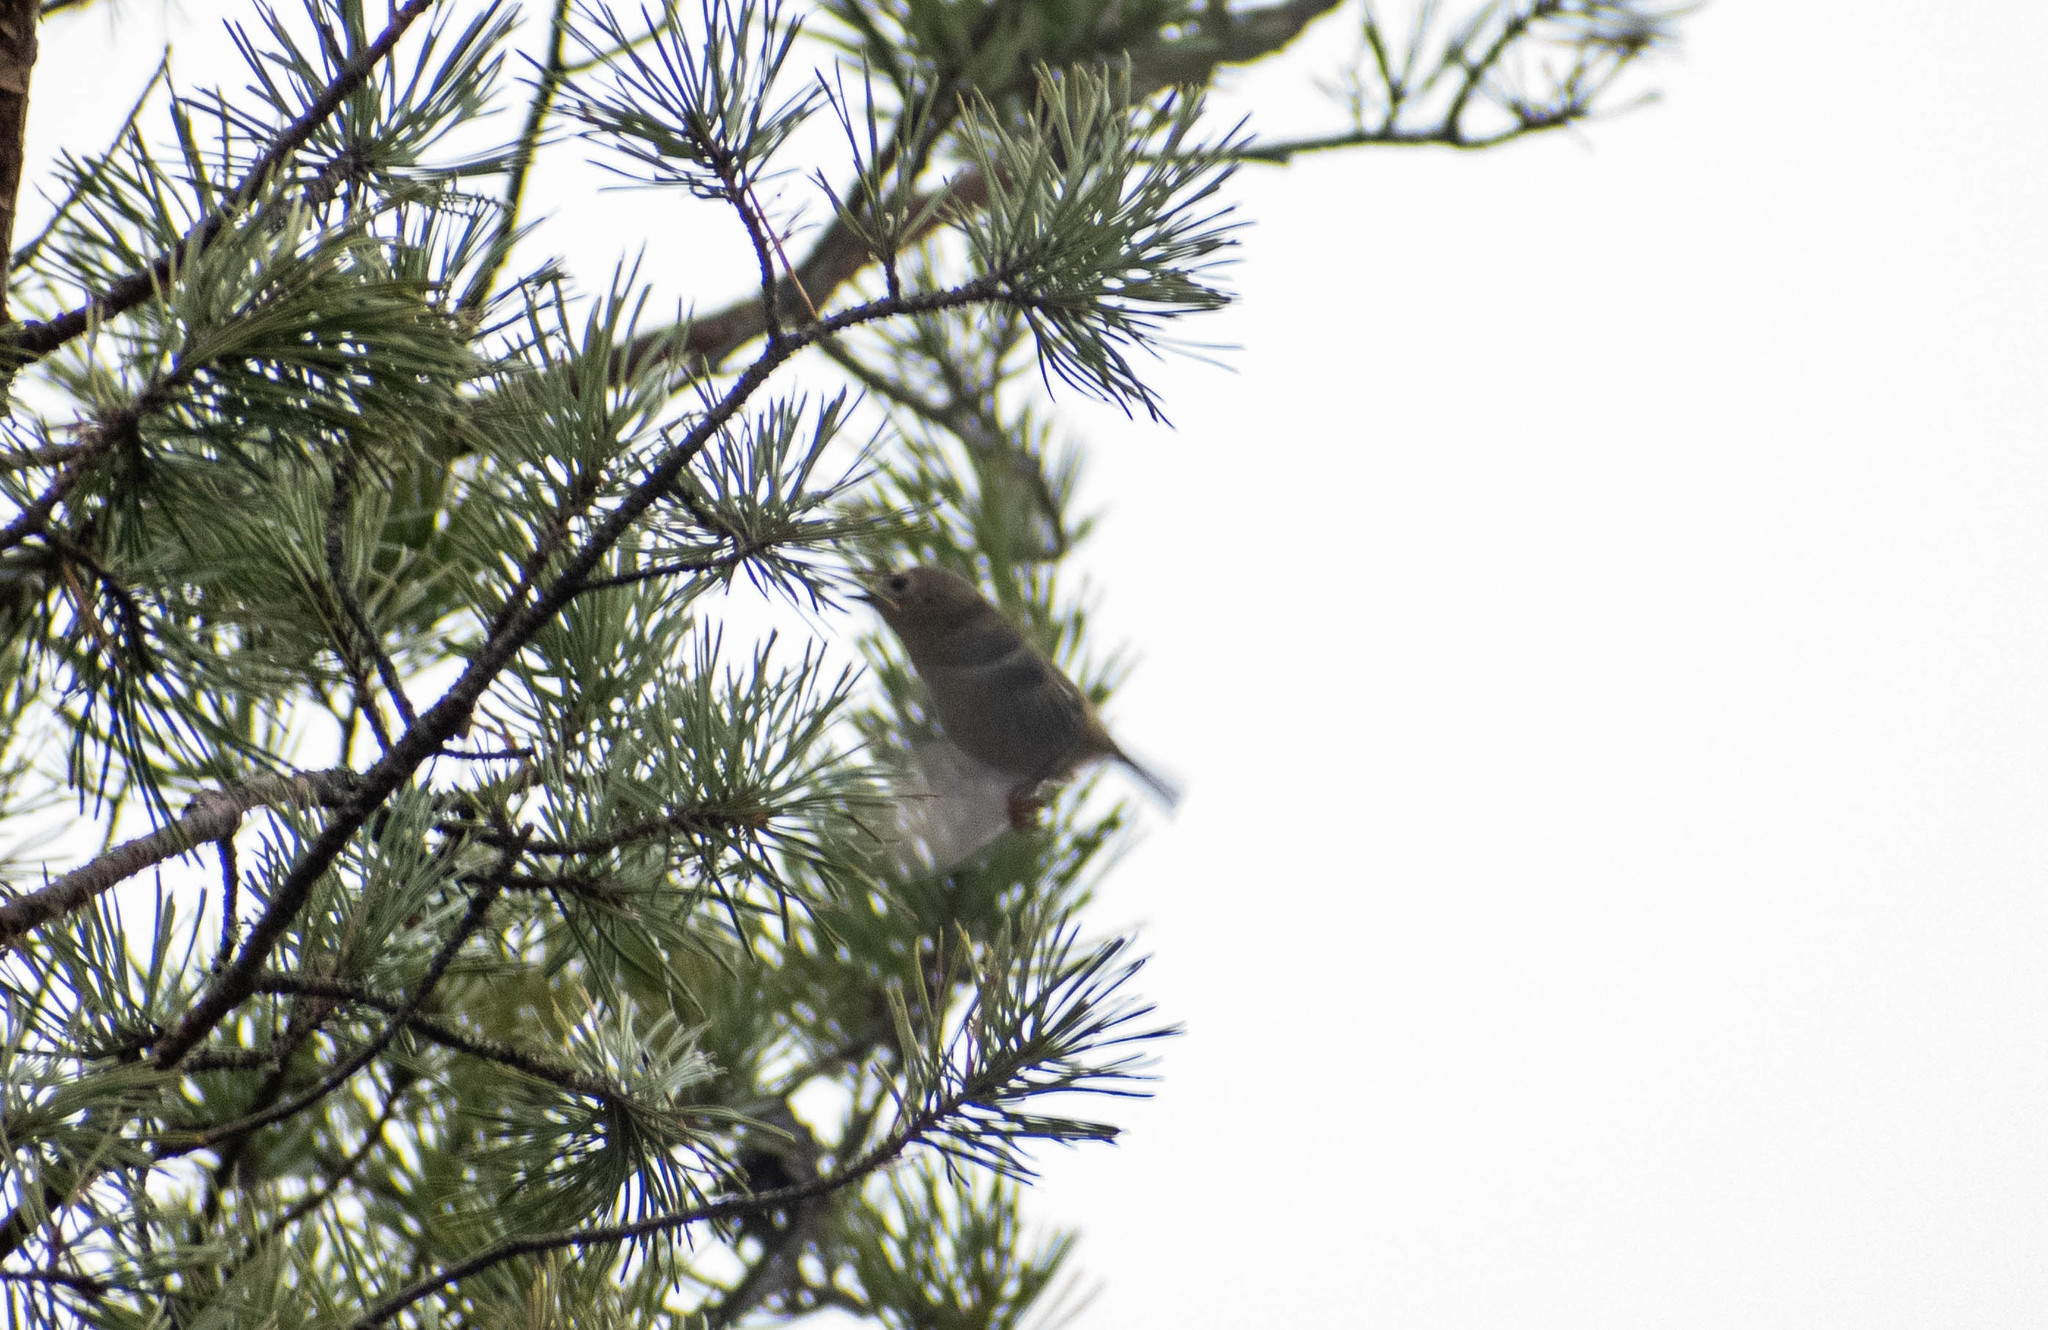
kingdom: Animalia
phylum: Chordata
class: Aves
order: Passeriformes
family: Regulidae
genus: Regulus
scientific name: Regulus regulus
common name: Goldcrest
